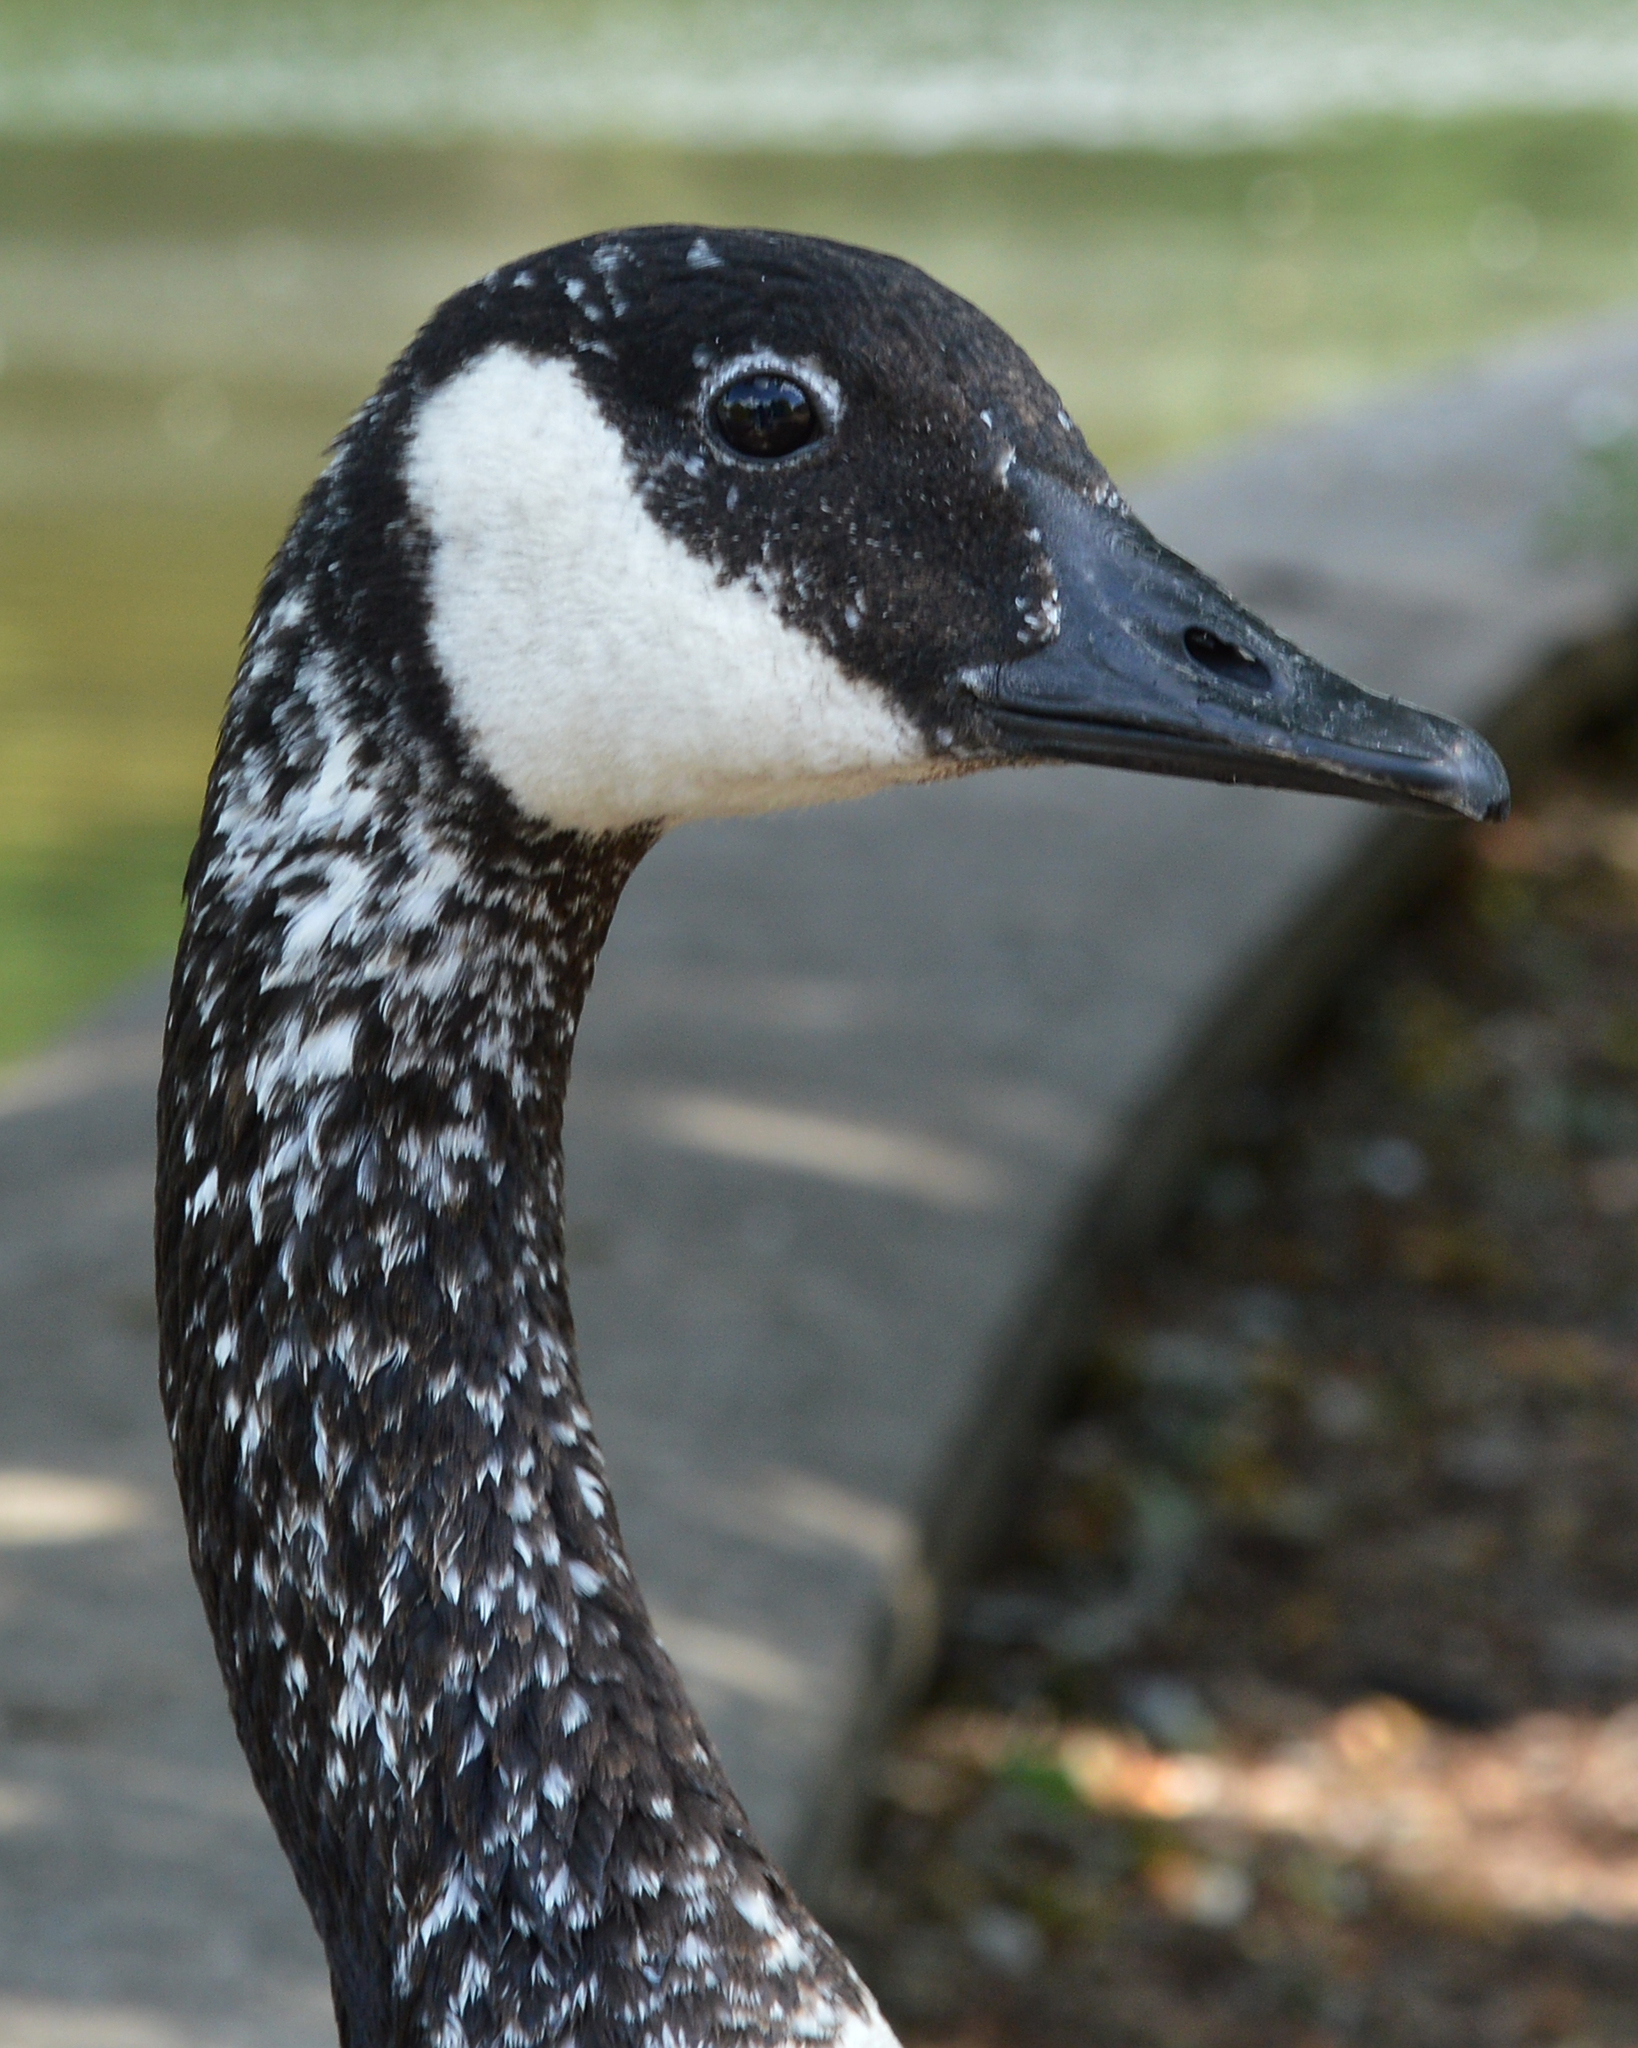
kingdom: Animalia
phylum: Chordata
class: Aves
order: Anseriformes
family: Anatidae
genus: Branta
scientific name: Branta canadensis
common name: Canada goose
